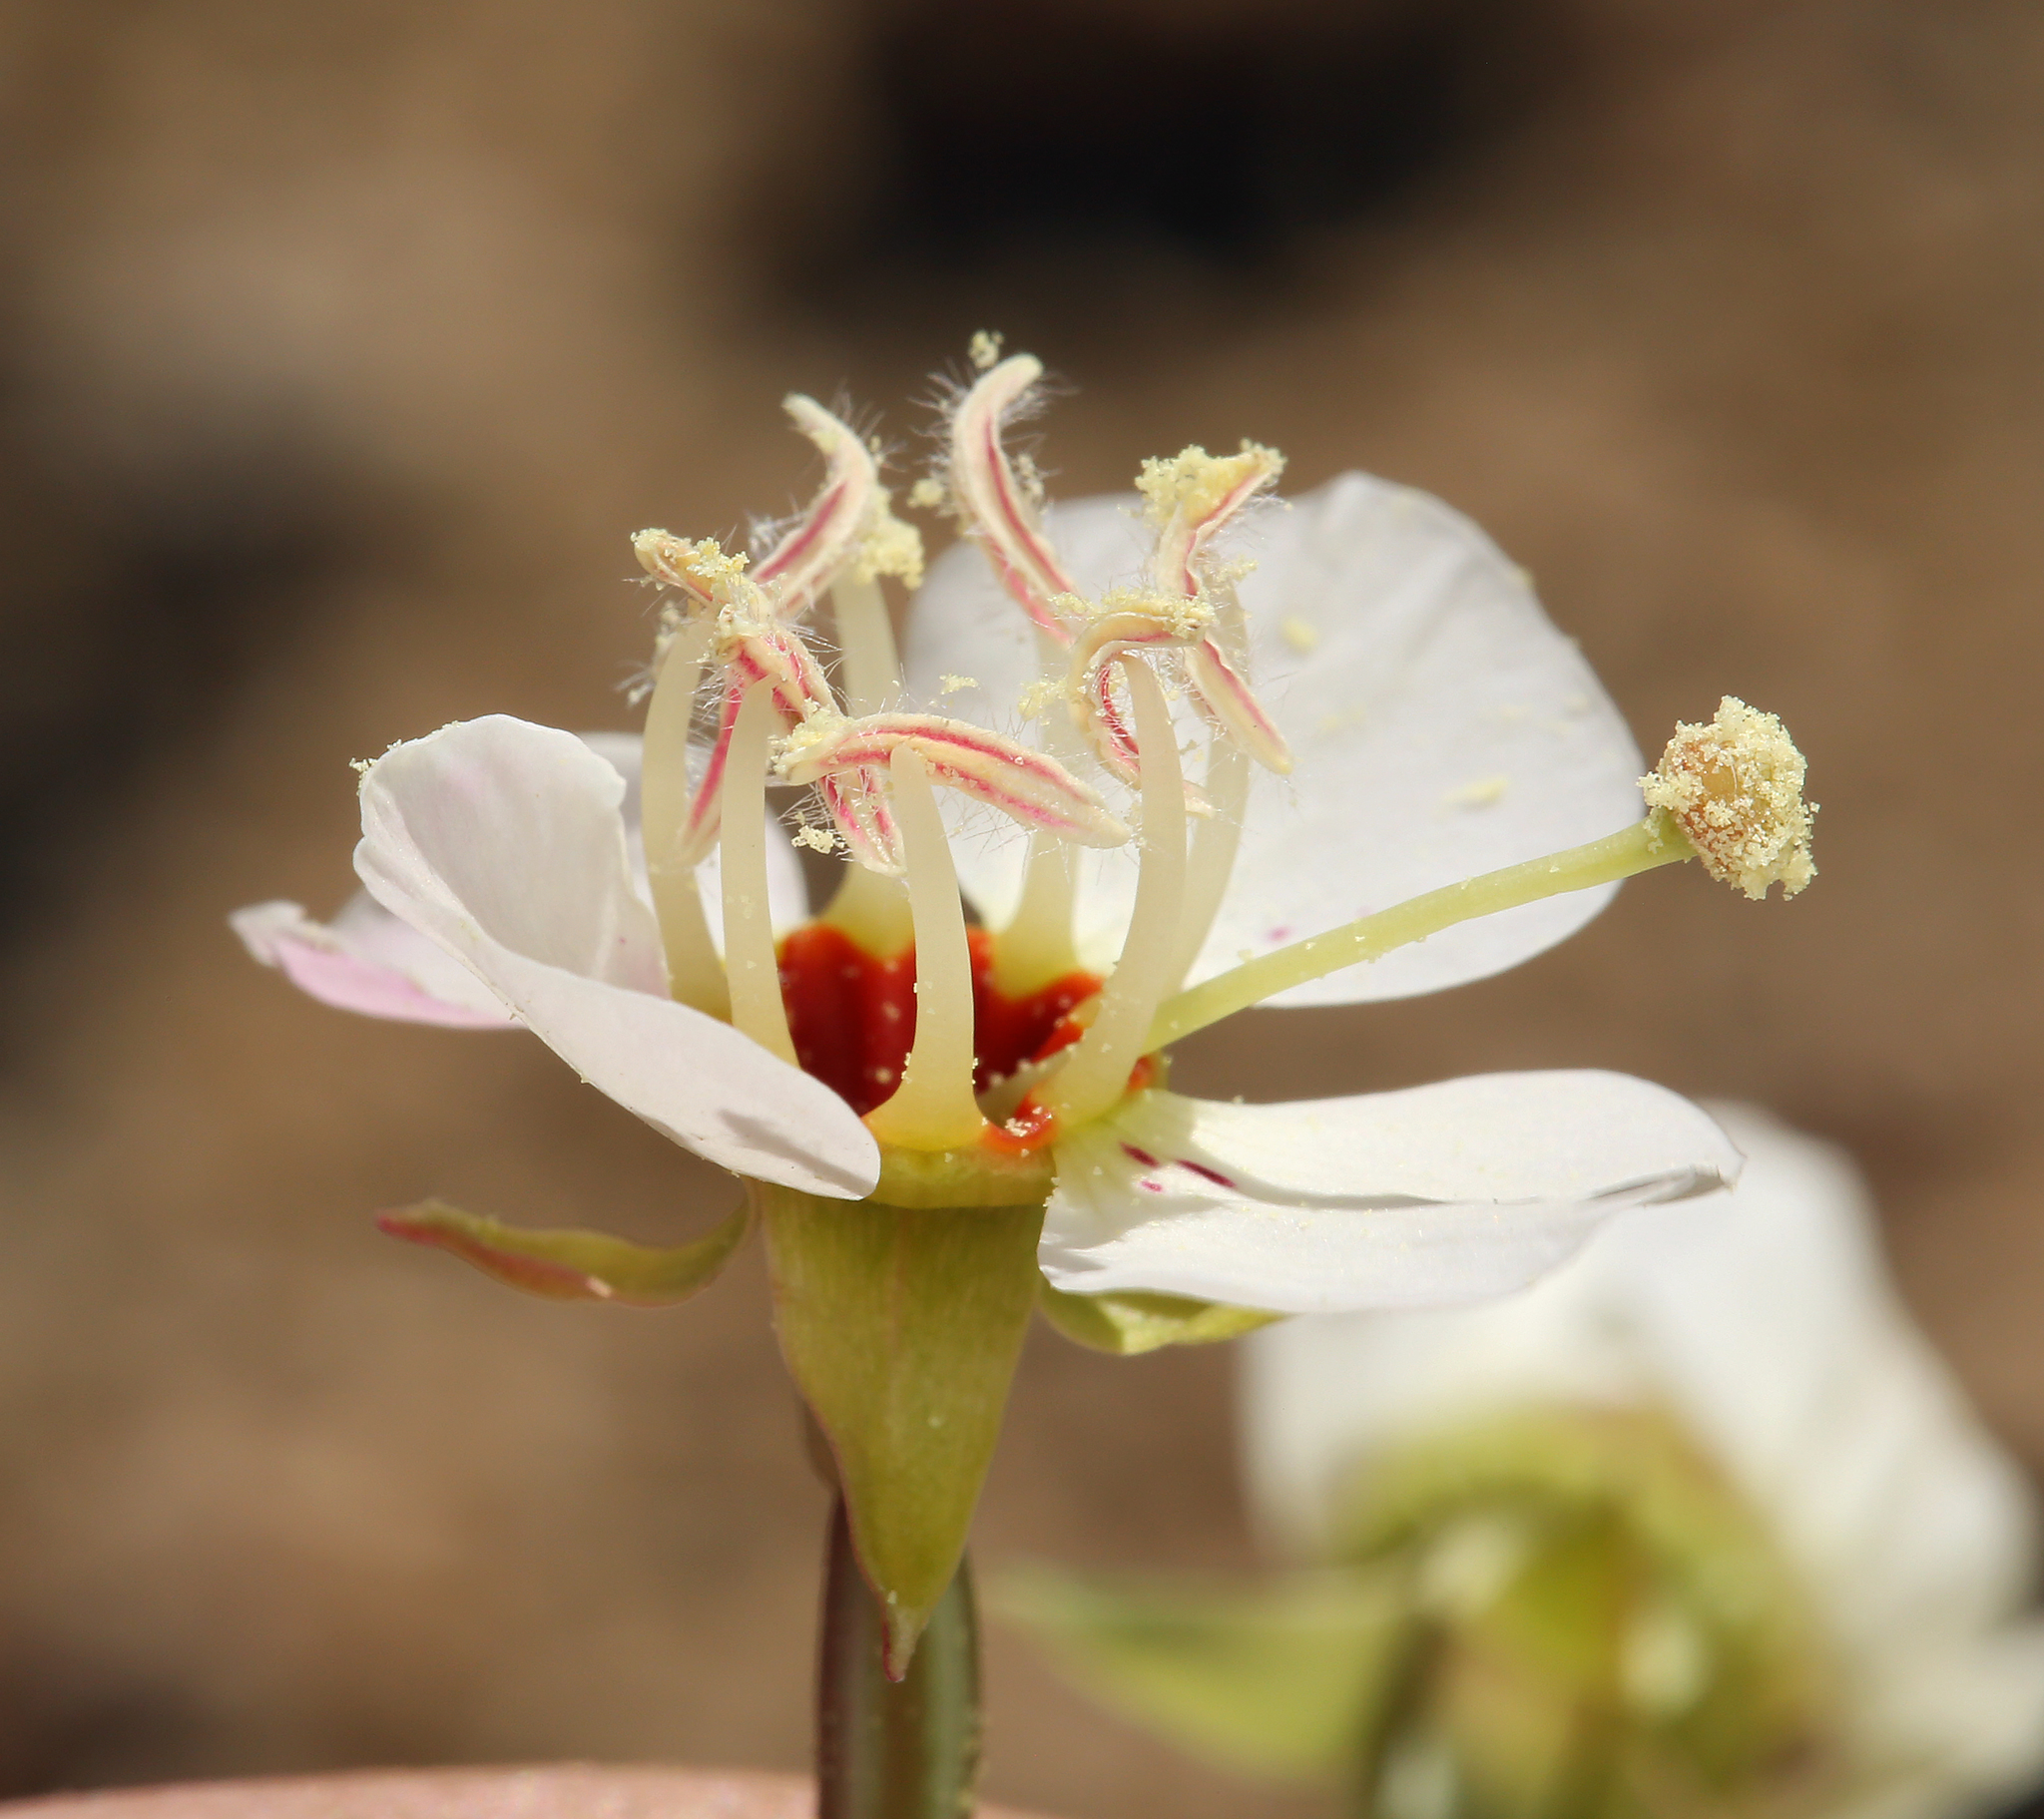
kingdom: Plantae
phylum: Tracheophyta
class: Magnoliopsida
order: Myrtales
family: Onagraceae
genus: Chylismia
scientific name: Chylismia claviformis
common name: Browneyes
